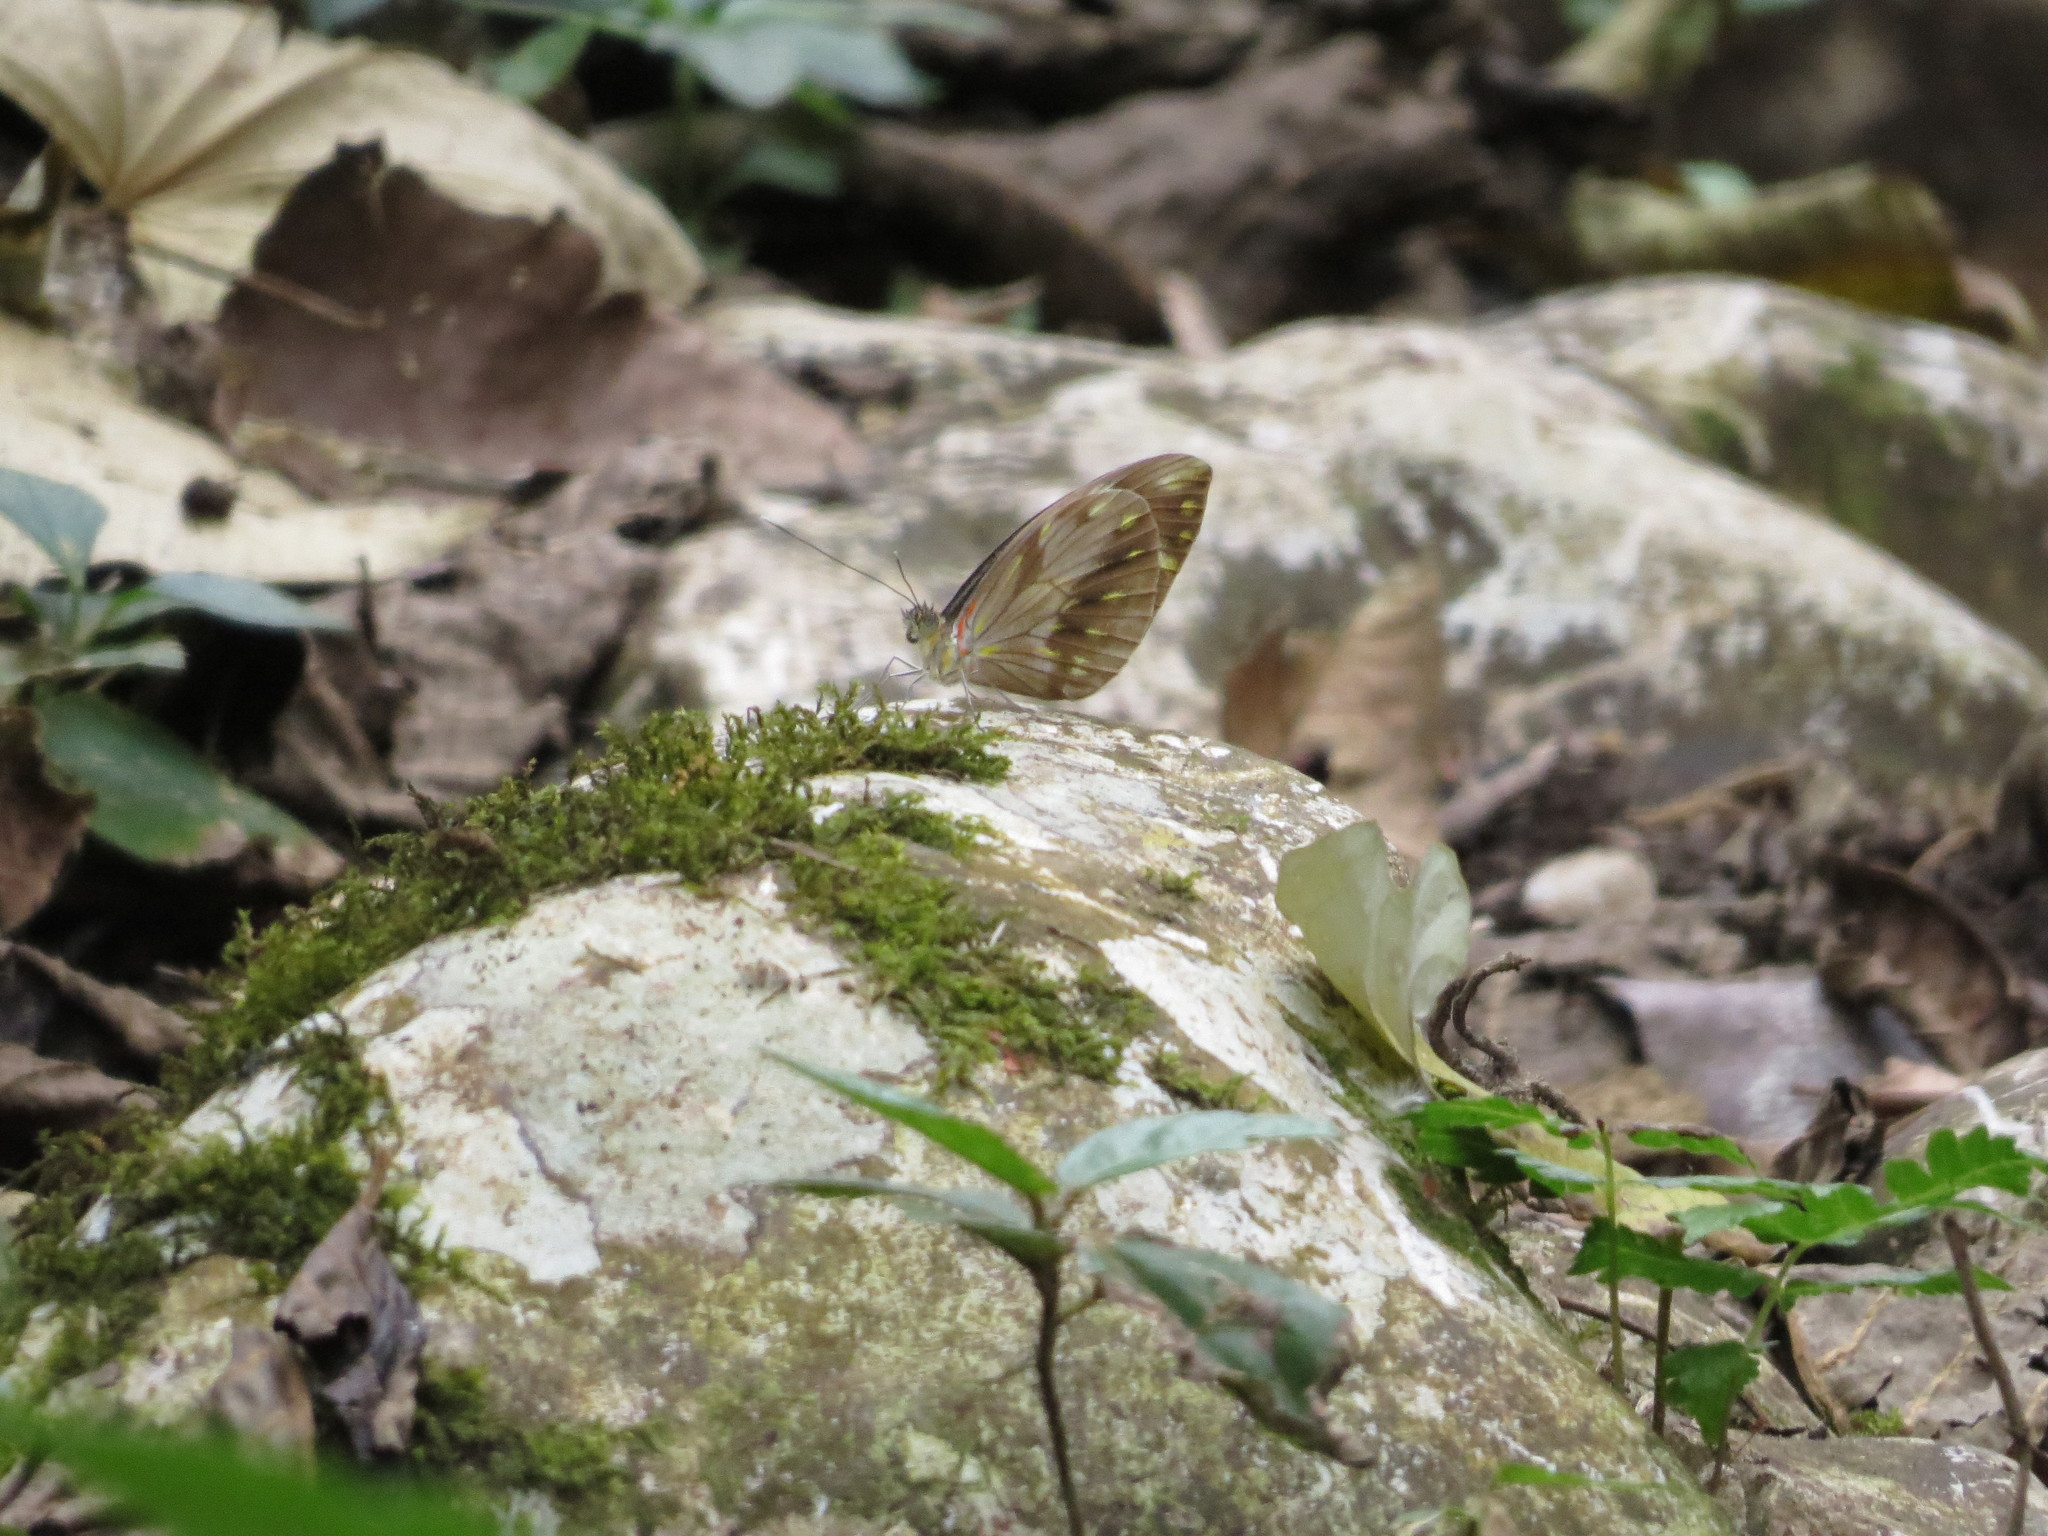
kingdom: Animalia
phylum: Arthropoda
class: Insecta
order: Lepidoptera
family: Pieridae
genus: Pieriballia
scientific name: Pieriballia viardi
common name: Painted white
